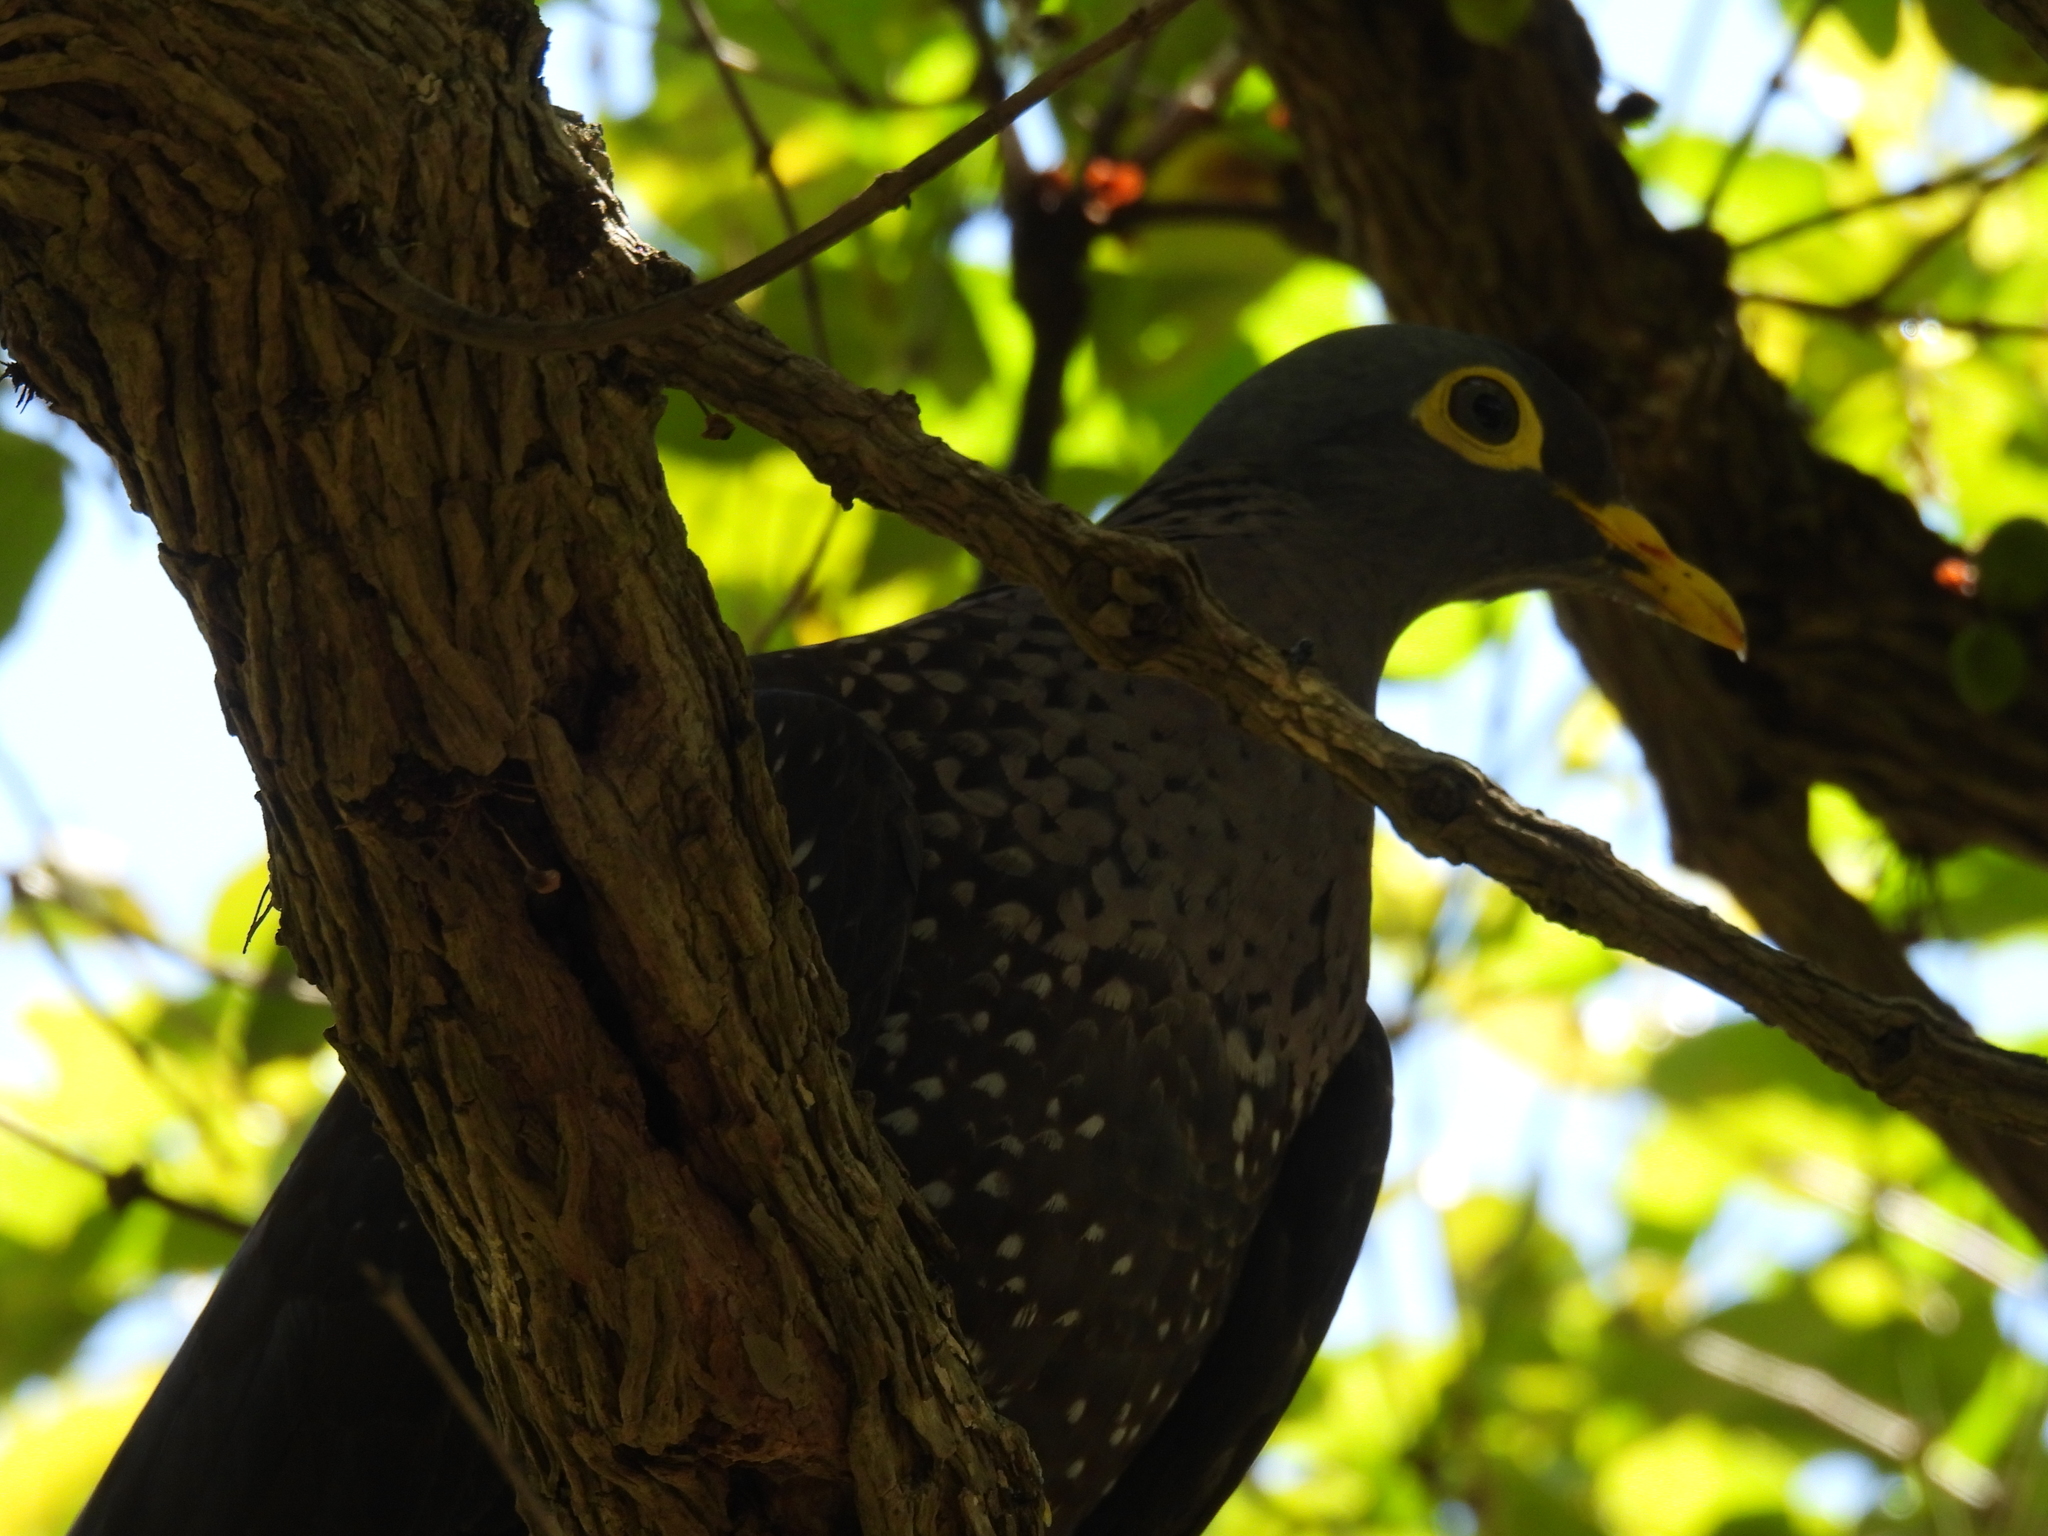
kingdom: Animalia
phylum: Chordata
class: Aves
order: Columbiformes
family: Columbidae
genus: Columba
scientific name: Columba arquatrix
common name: African olive pigeon
